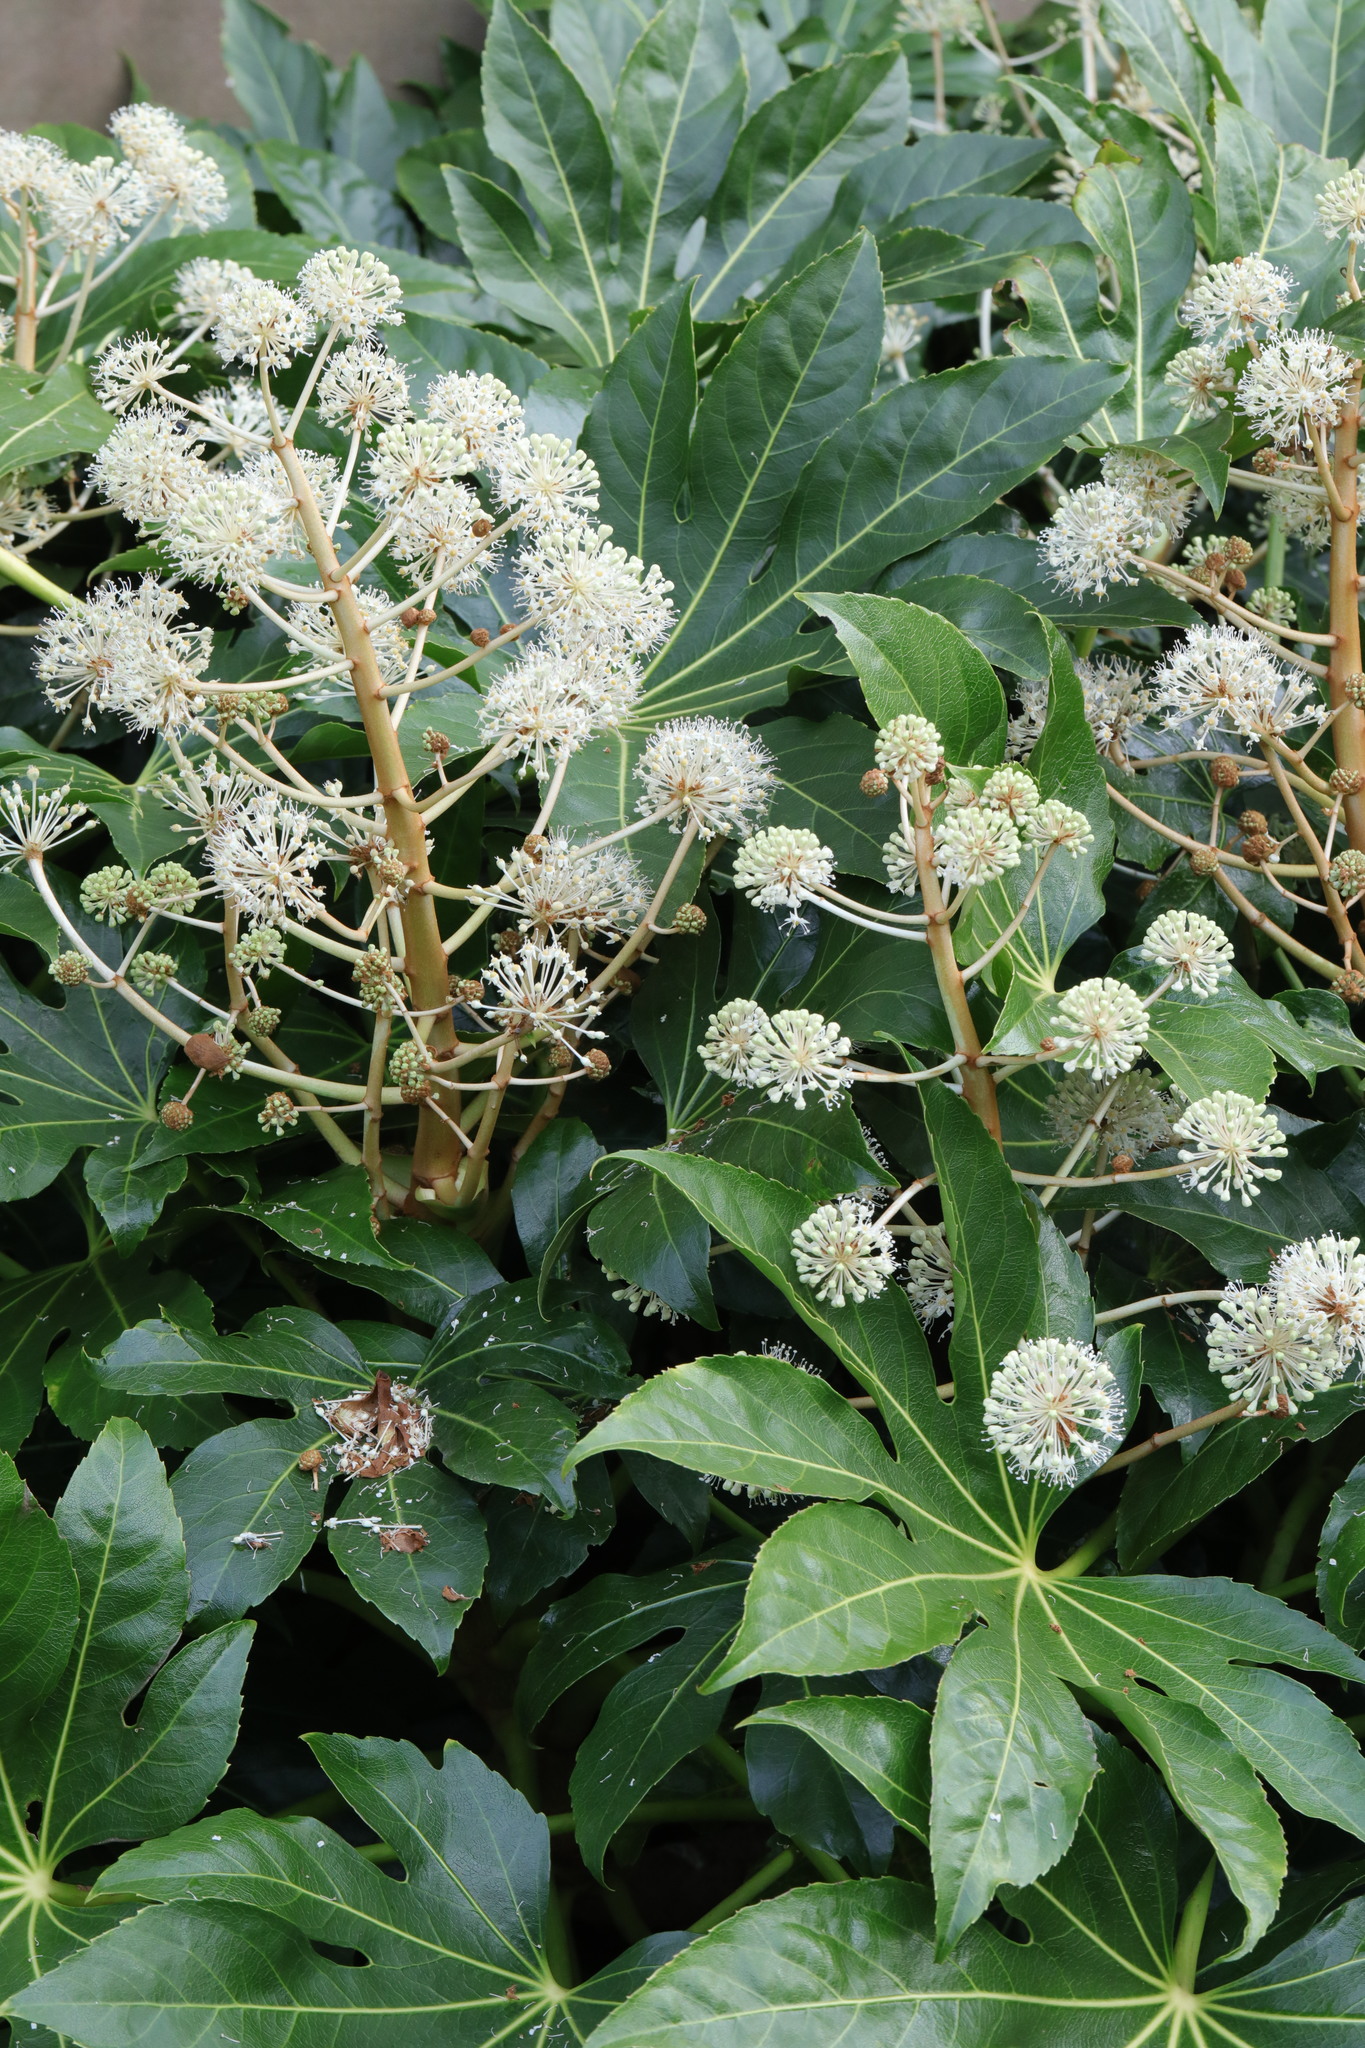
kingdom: Plantae
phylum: Tracheophyta
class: Magnoliopsida
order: Apiales
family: Araliaceae
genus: Fatsia
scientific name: Fatsia japonica
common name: Fatsia
